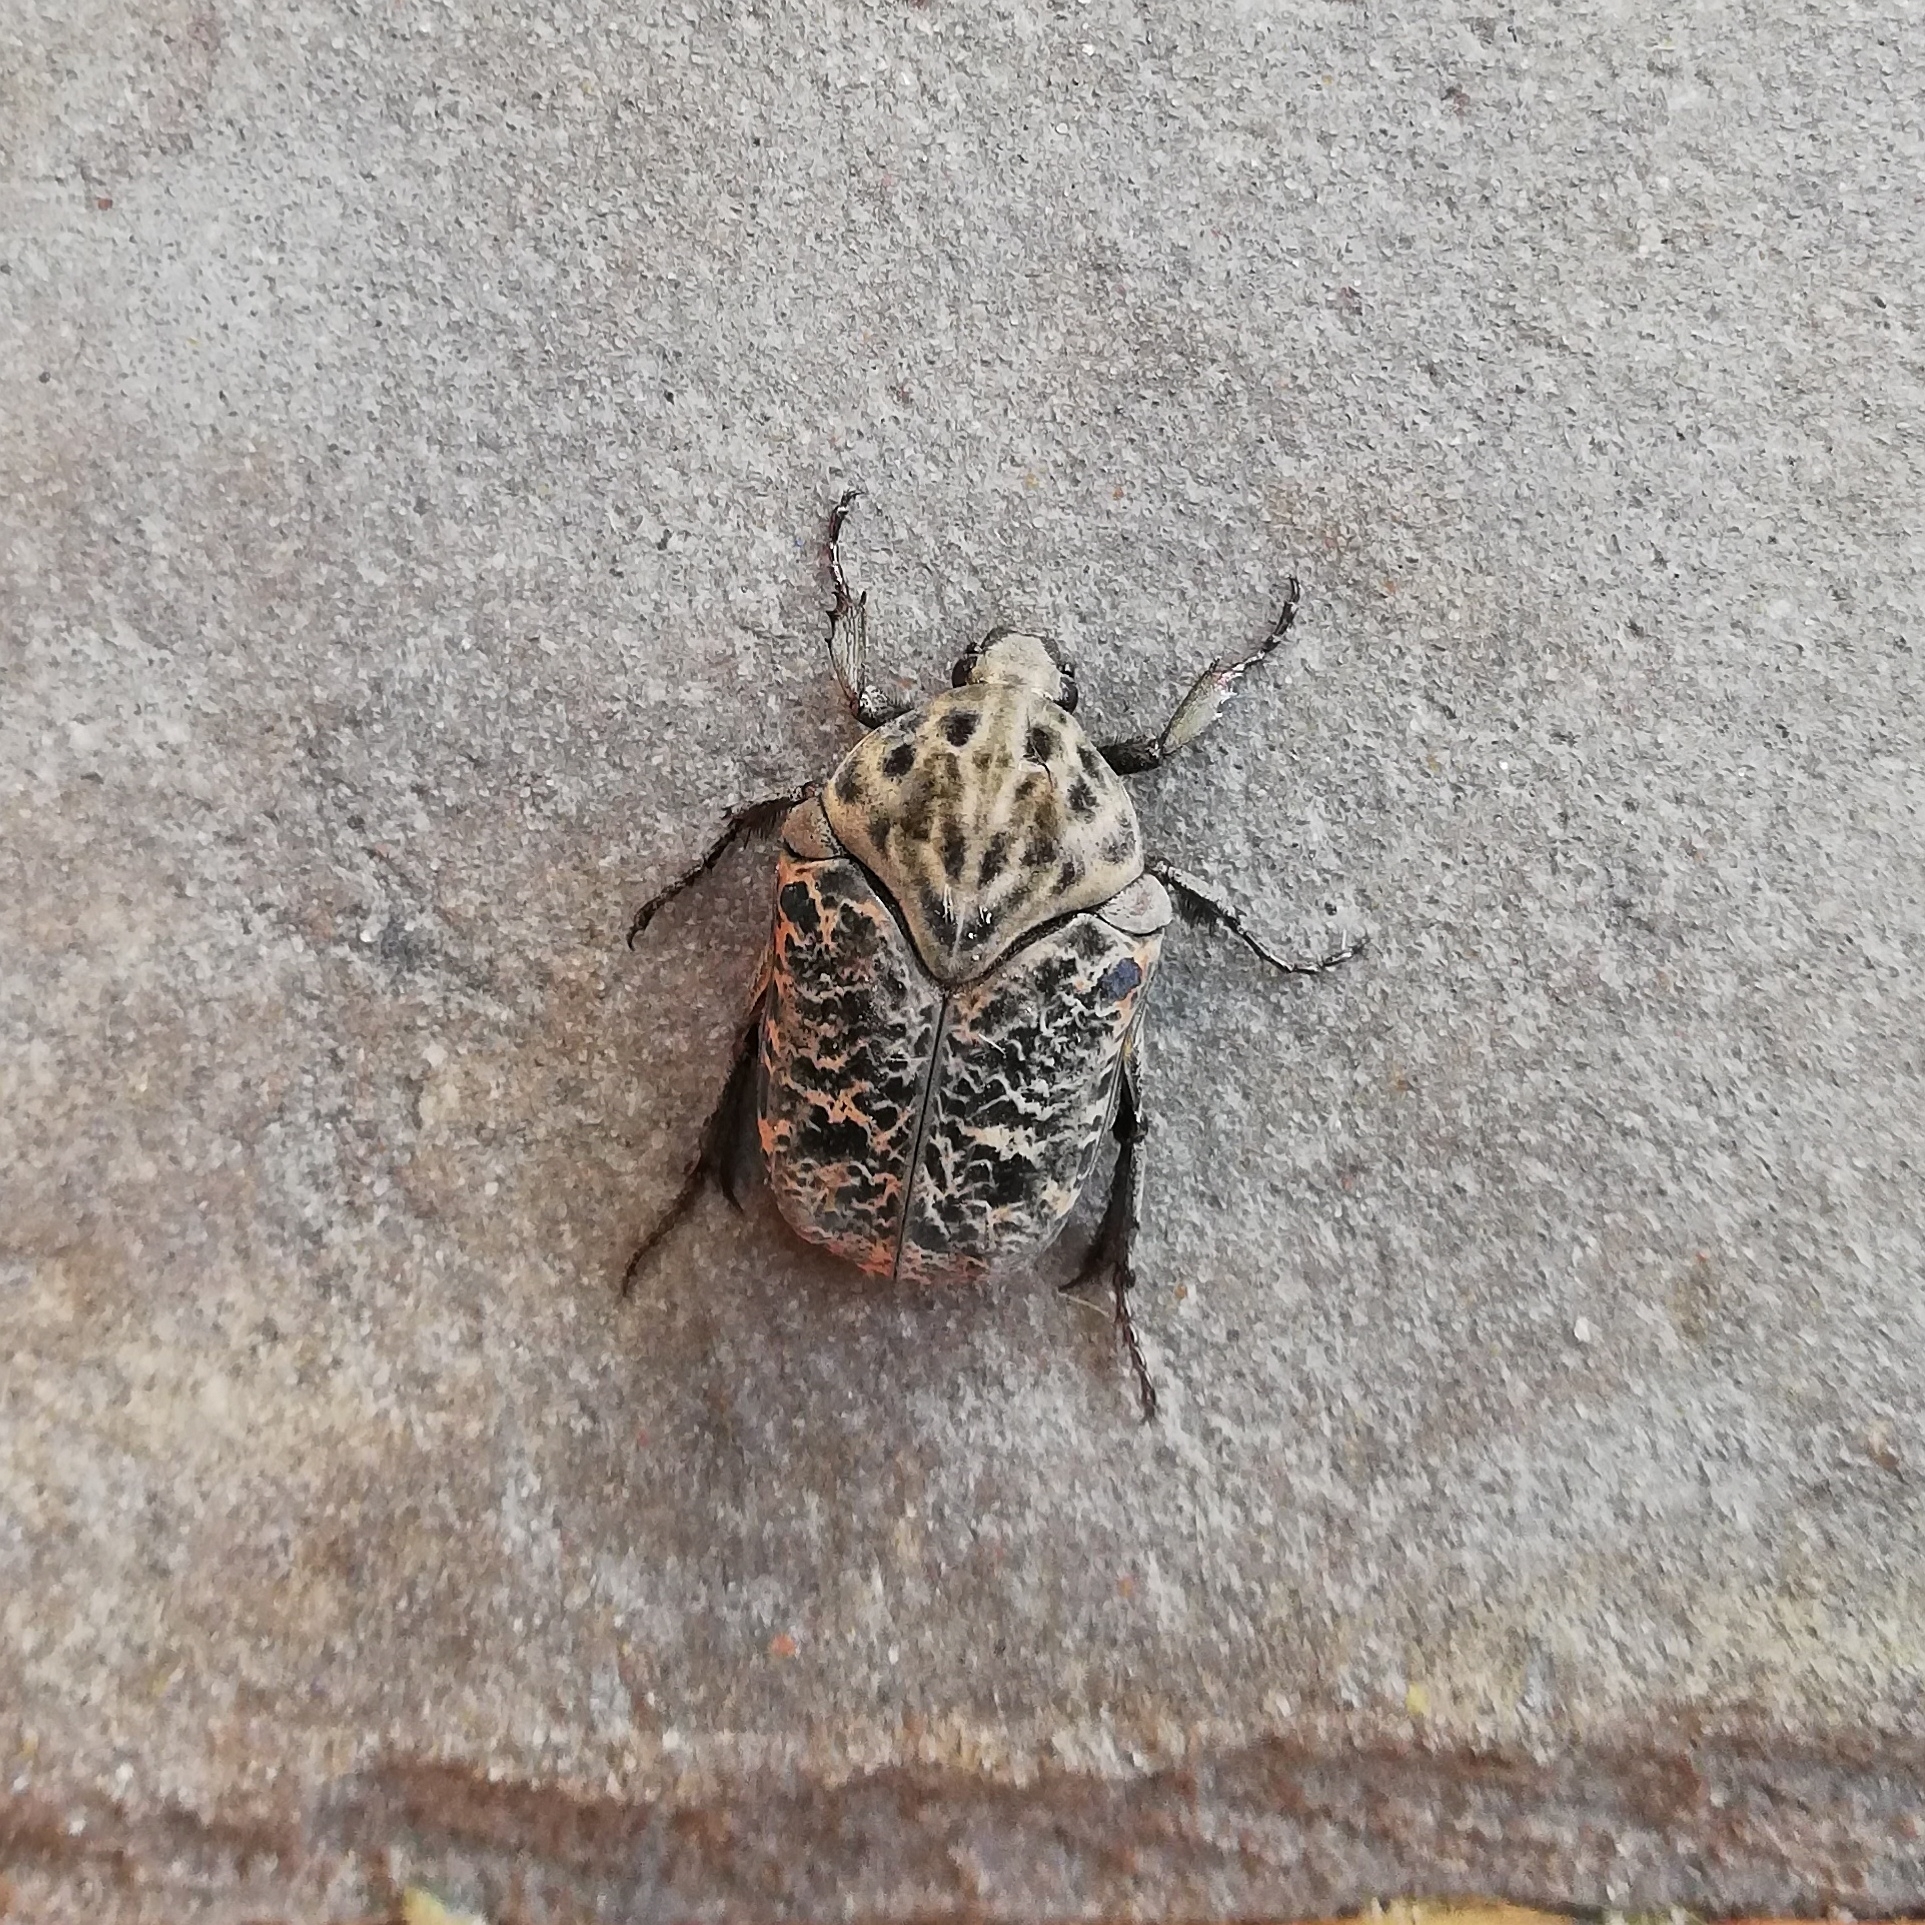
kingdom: Animalia
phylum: Arthropoda
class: Insecta
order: Coleoptera
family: Scarabaeidae
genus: Gymnetis
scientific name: Gymnetis chalcipes
